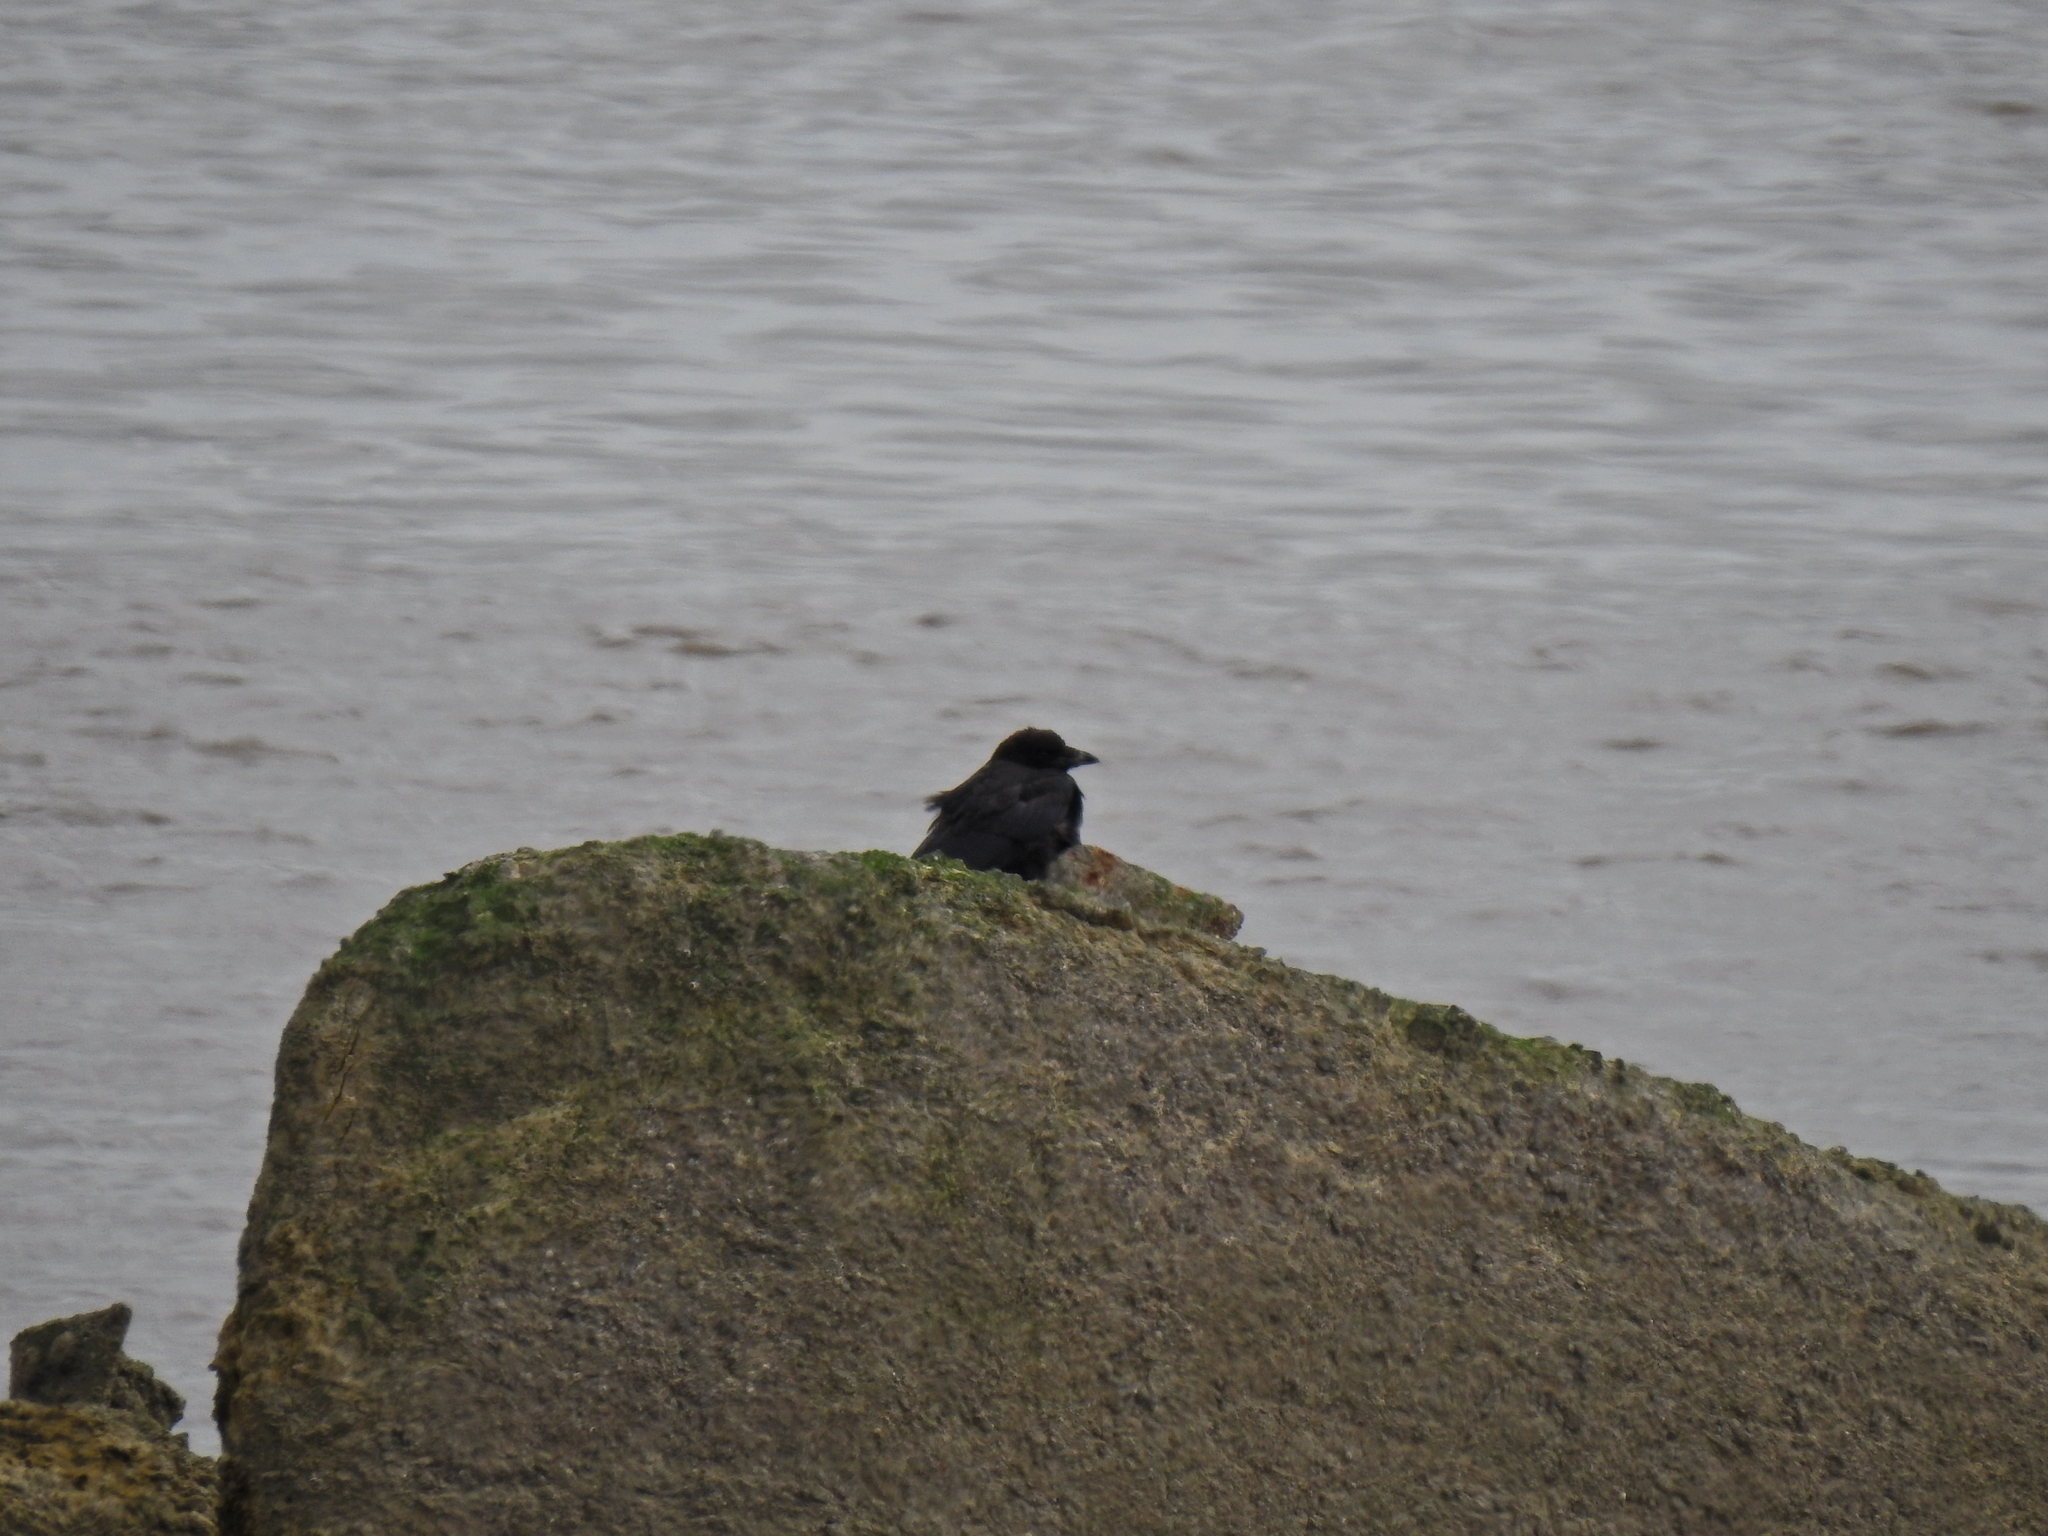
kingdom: Animalia
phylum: Chordata
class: Aves
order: Passeriformes
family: Corvidae
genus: Corvus
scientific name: Corvus corone
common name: Carrion crow
